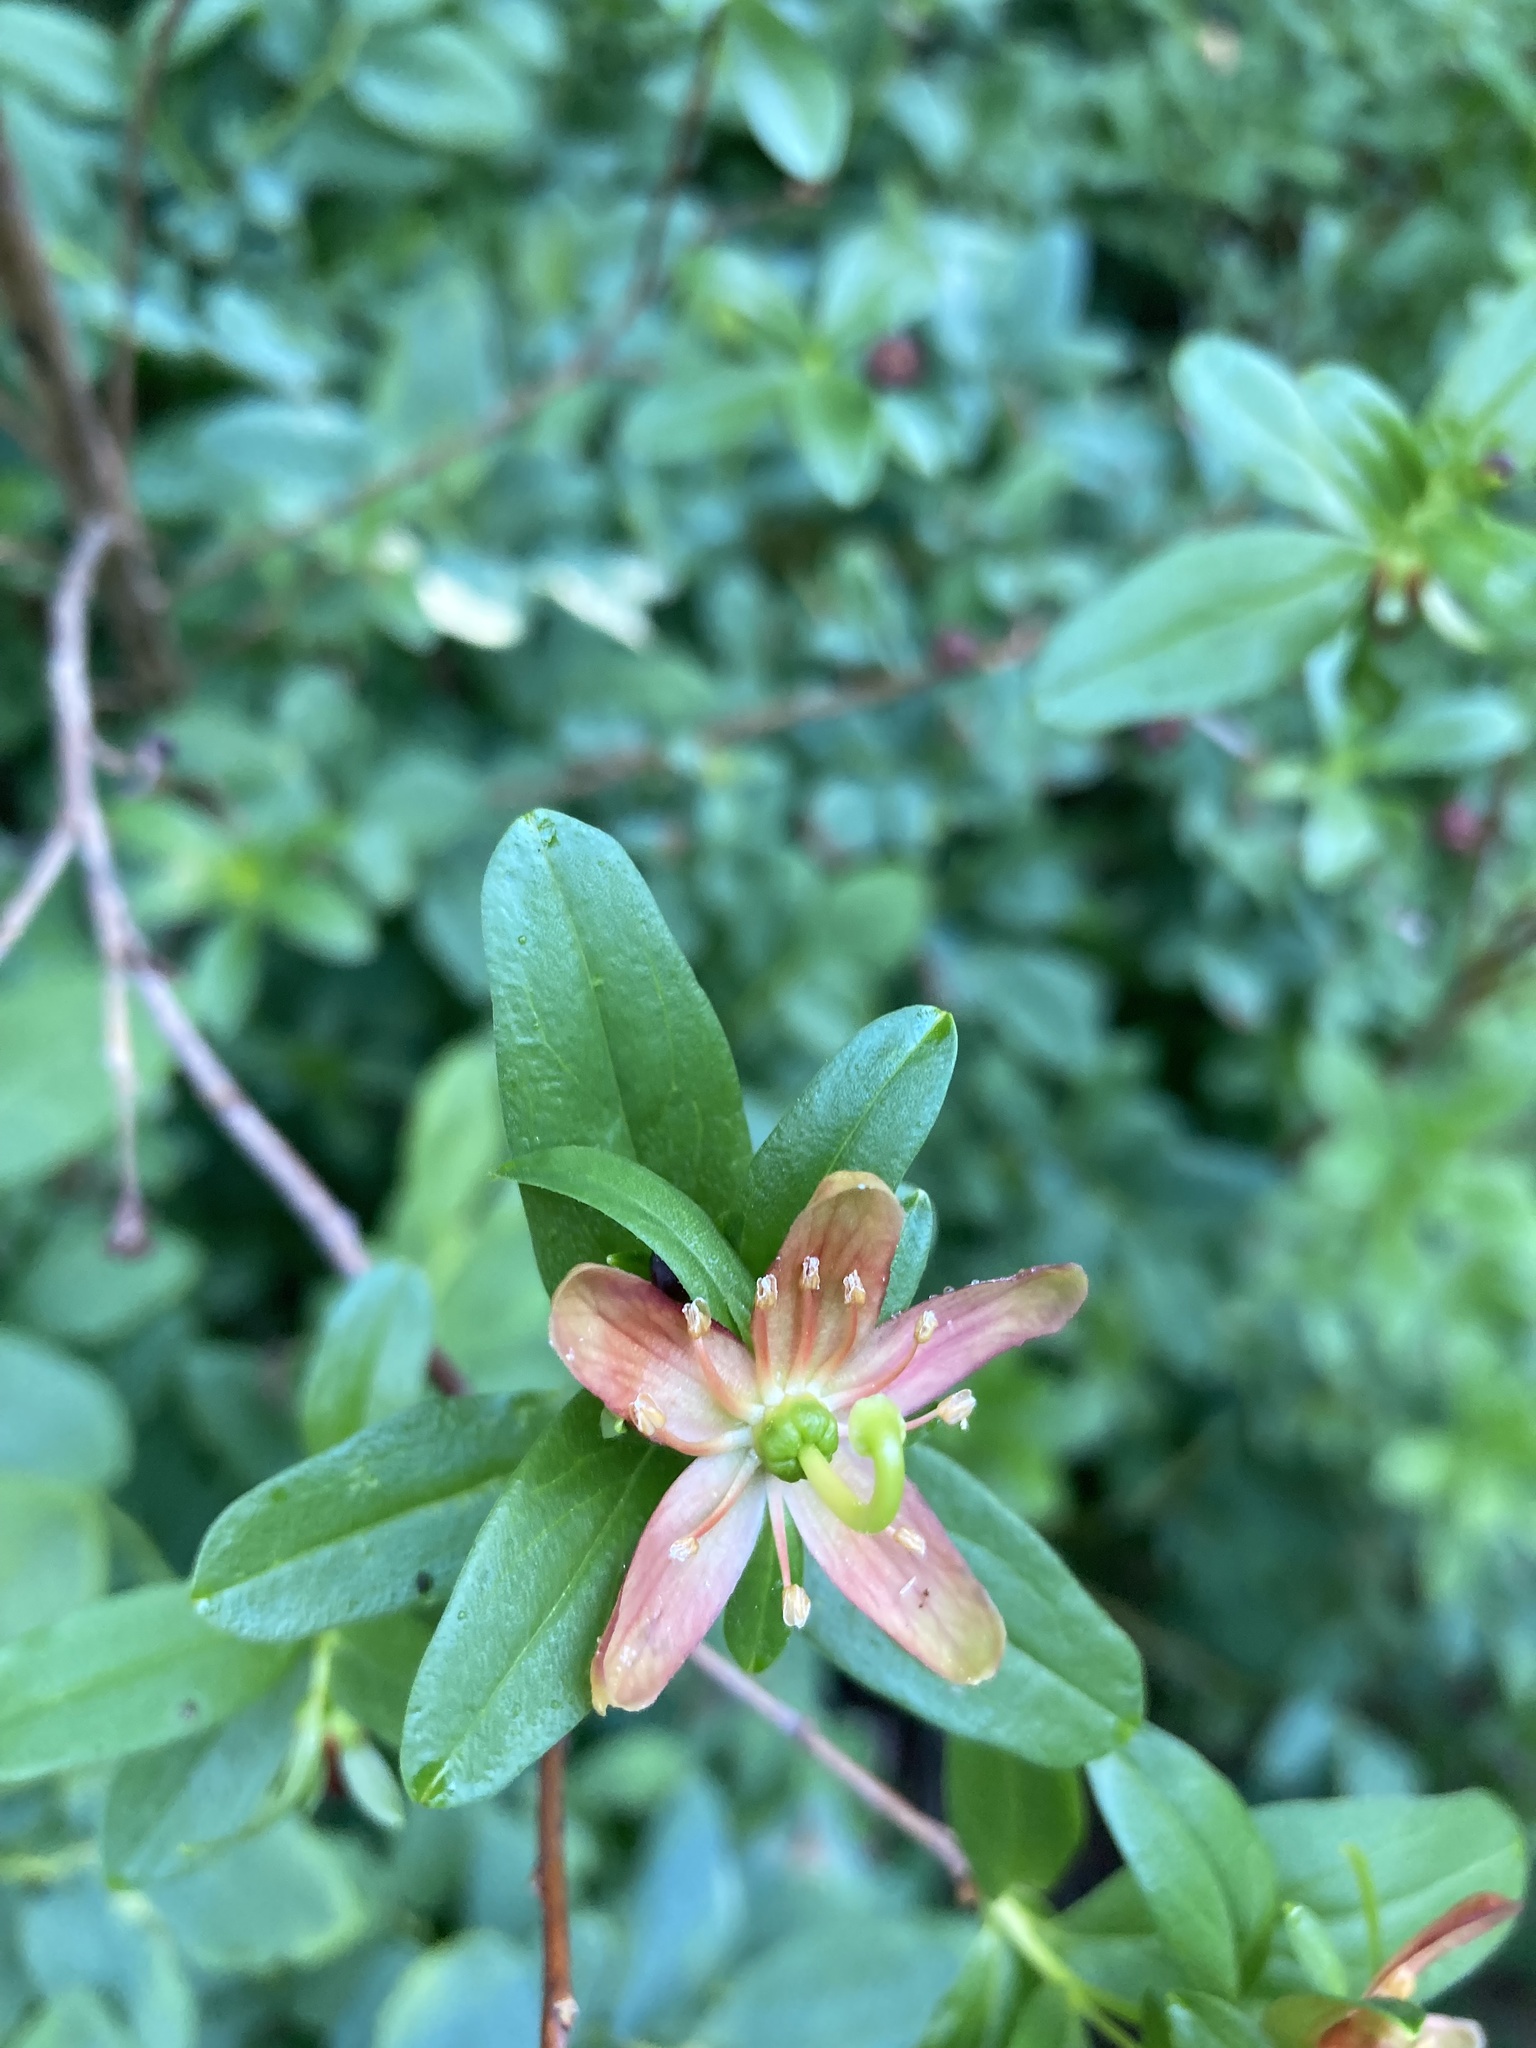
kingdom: Plantae
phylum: Tracheophyta
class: Magnoliopsida
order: Ericales
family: Ericaceae
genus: Elliottia
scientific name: Elliottia pyroliflora
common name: Copperbush
